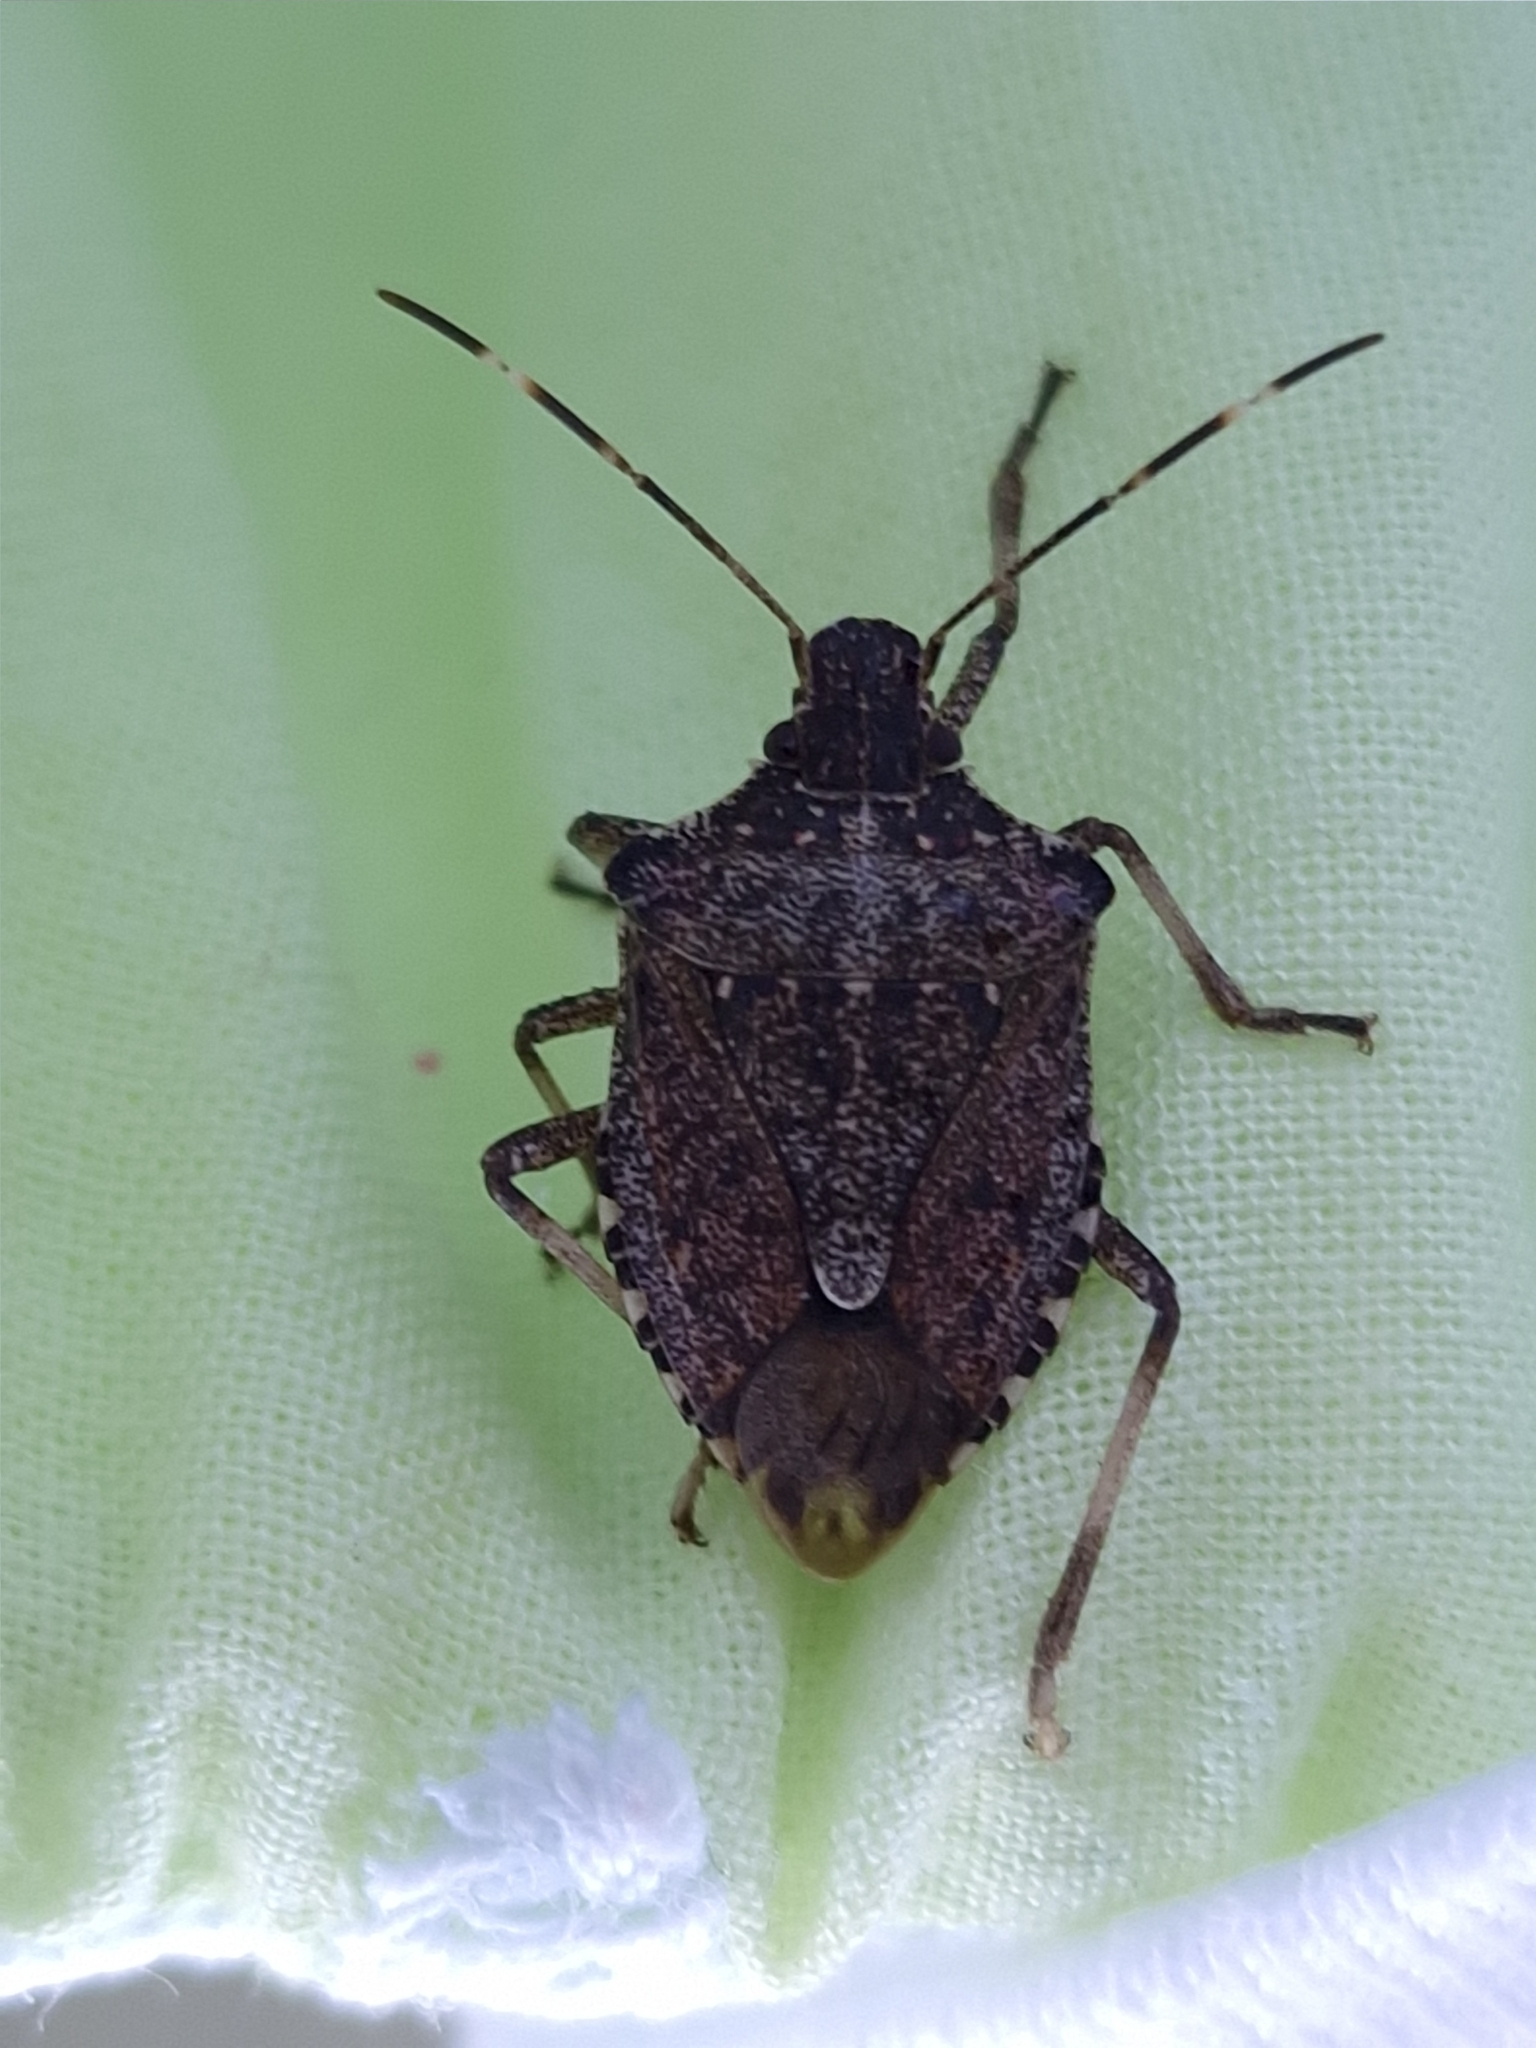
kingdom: Animalia
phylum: Arthropoda
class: Insecta
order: Hemiptera
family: Pentatomidae
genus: Halyomorpha
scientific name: Halyomorpha halys
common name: Brown marmorated stink bug
